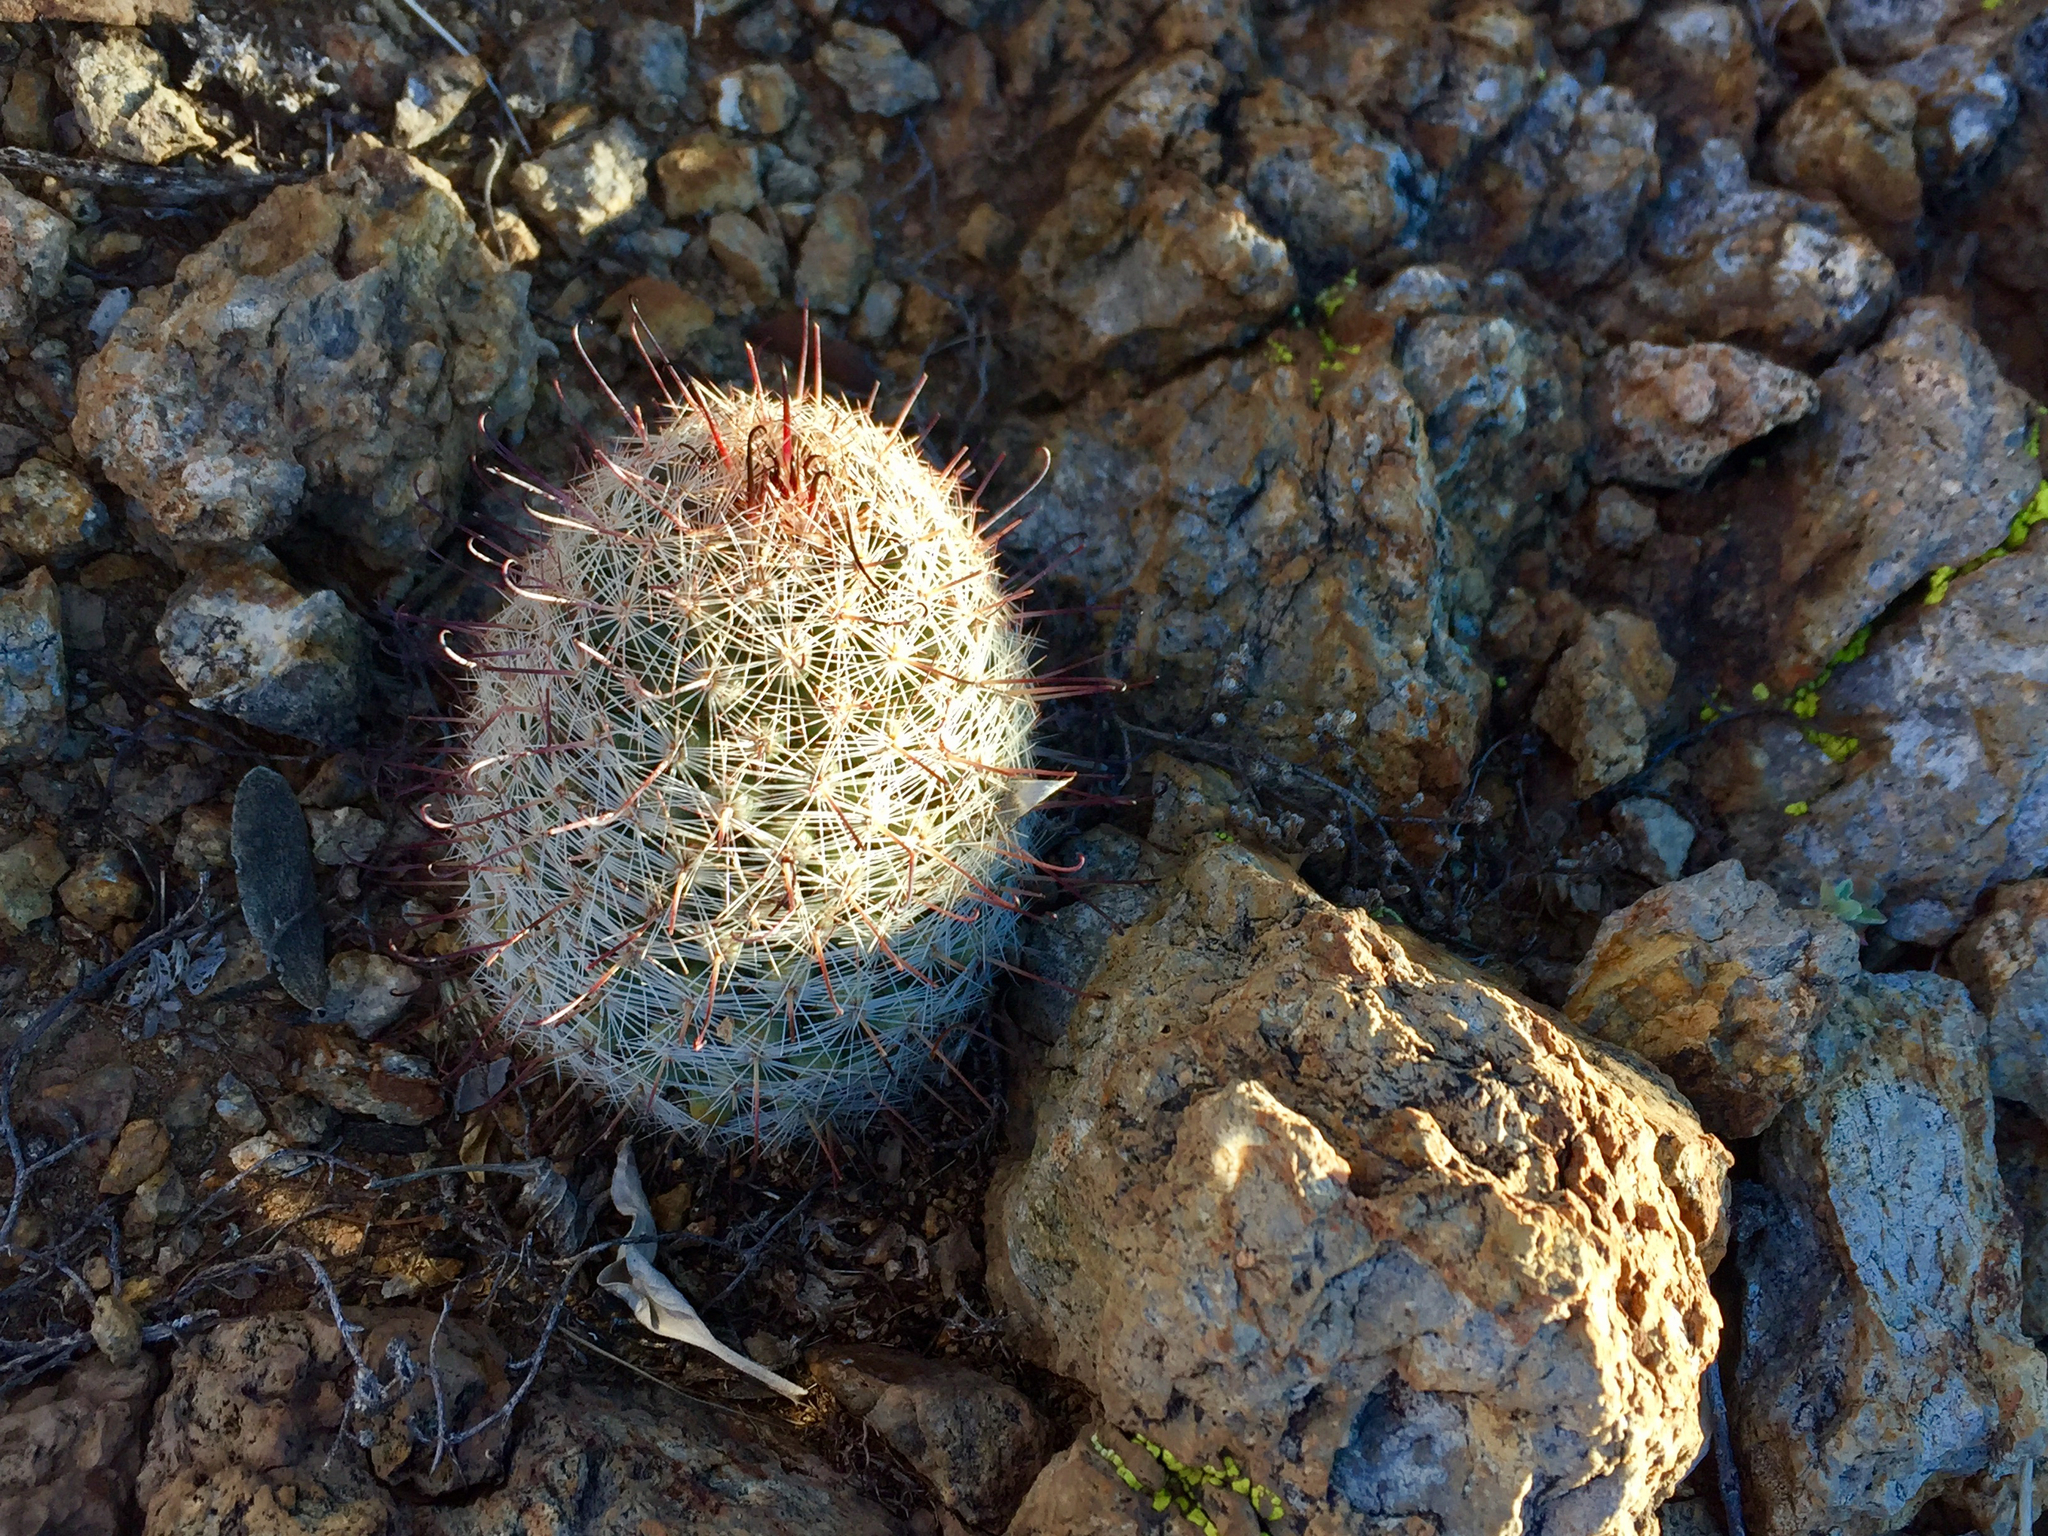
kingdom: Plantae
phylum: Tracheophyta
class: Magnoliopsida
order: Caryophyllales
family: Cactaceae
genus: Cochemiea
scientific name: Cochemiea grahamii
